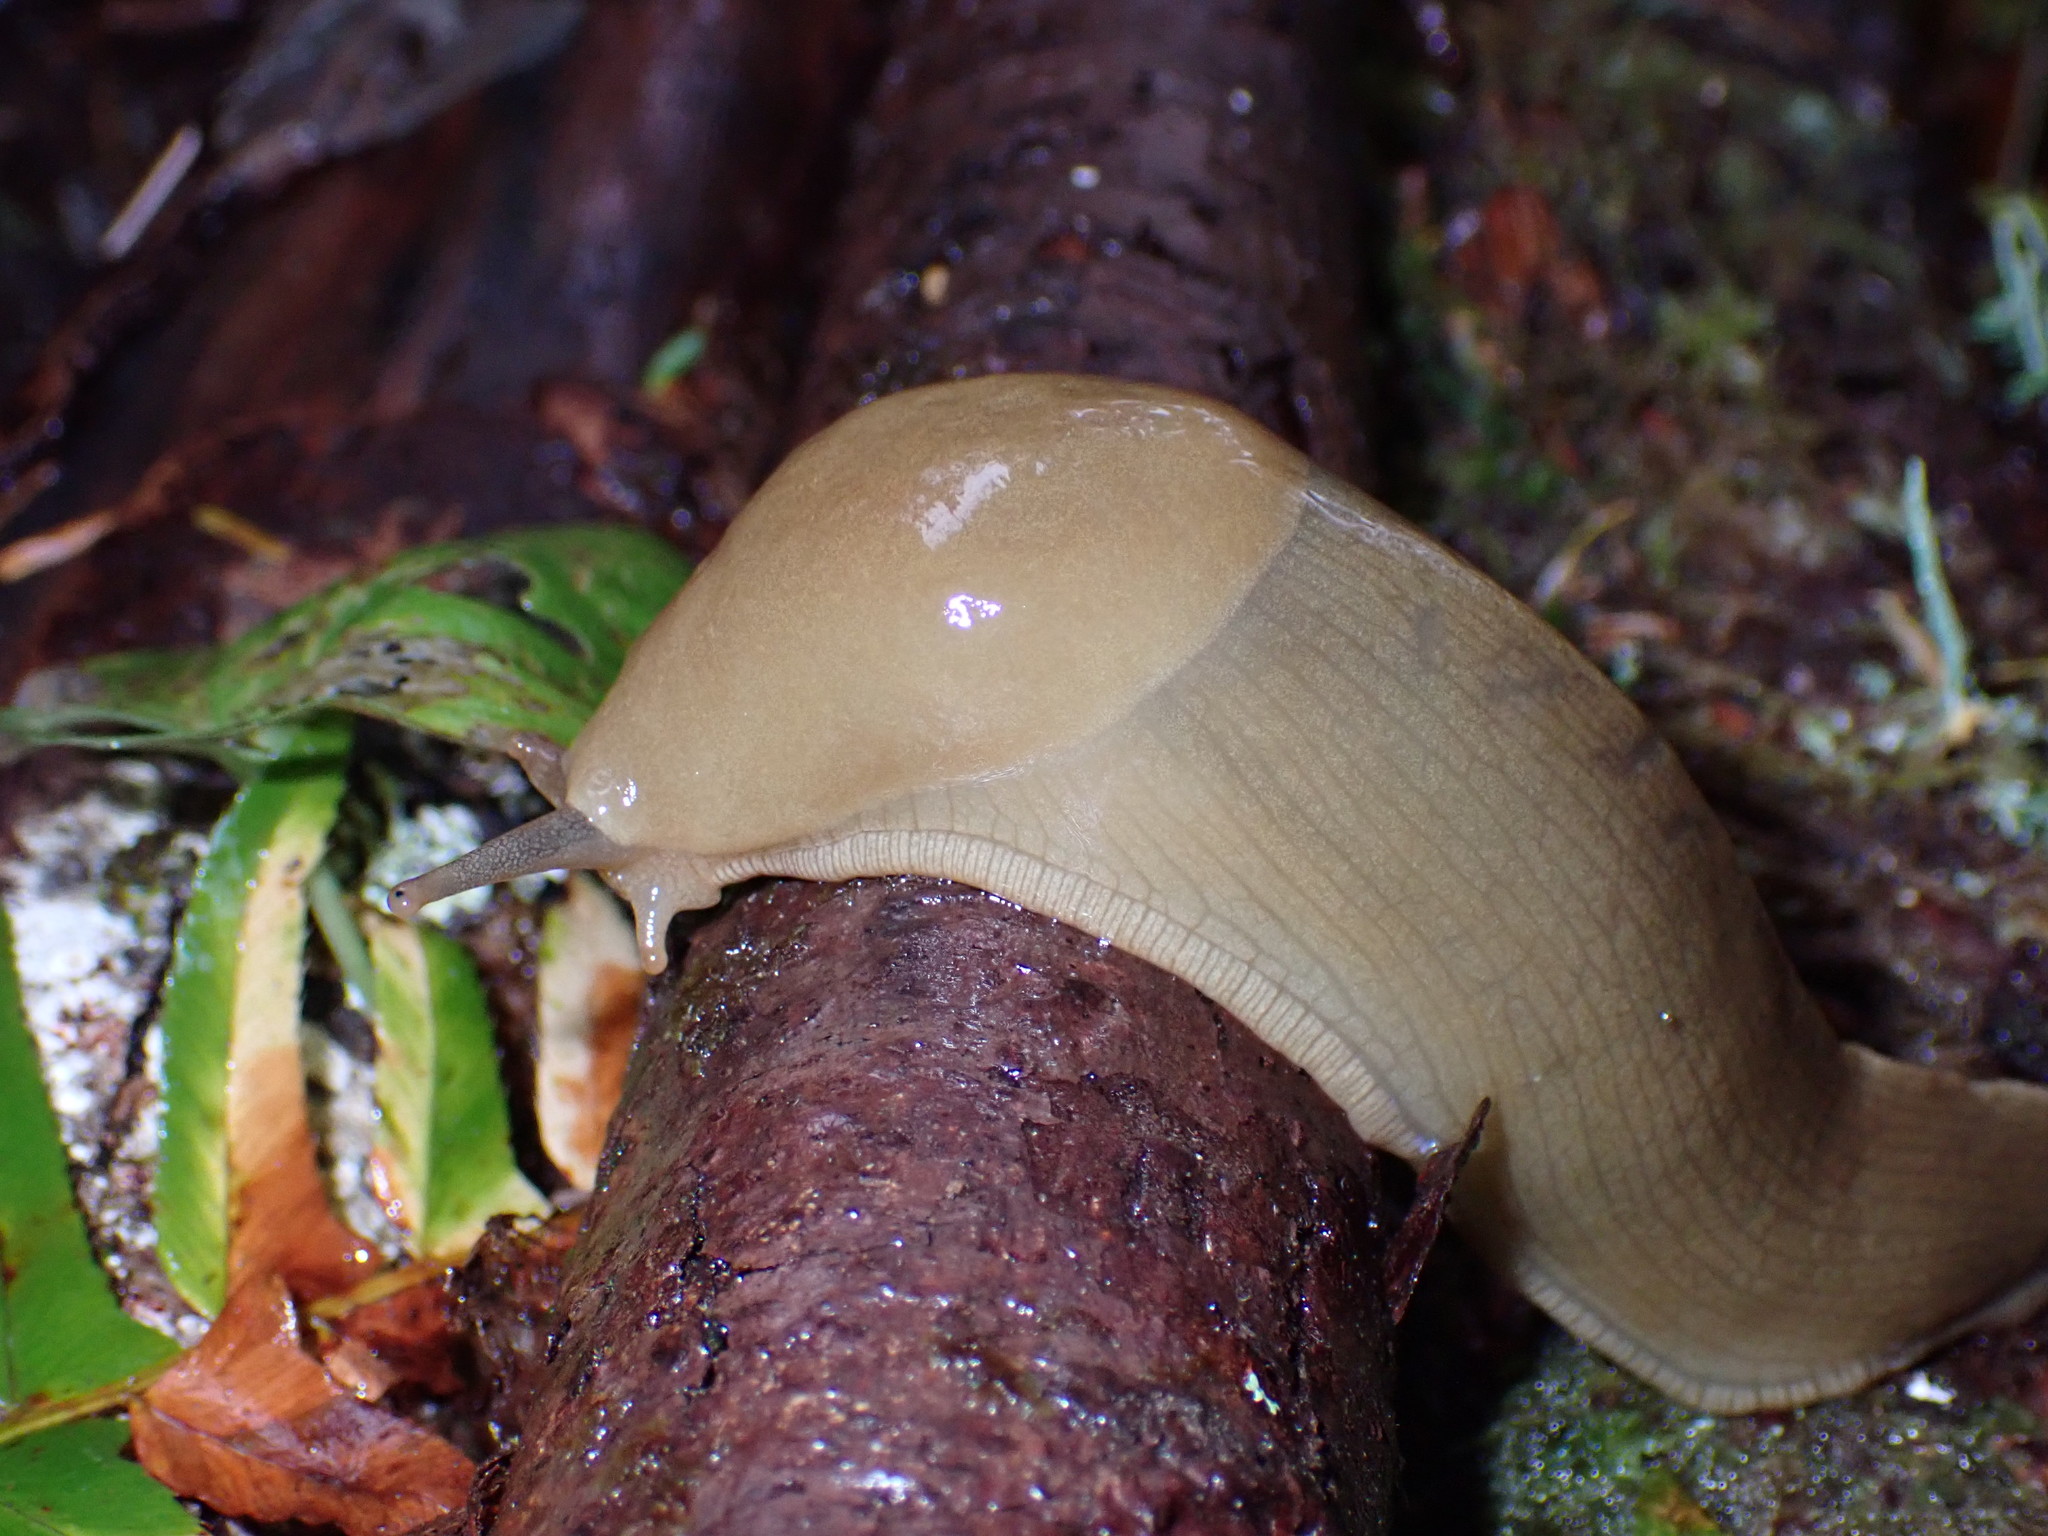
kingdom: Animalia
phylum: Mollusca
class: Gastropoda
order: Stylommatophora
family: Ariolimacidae
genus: Ariolimax
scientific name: Ariolimax columbianus
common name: Pacific banana slug
